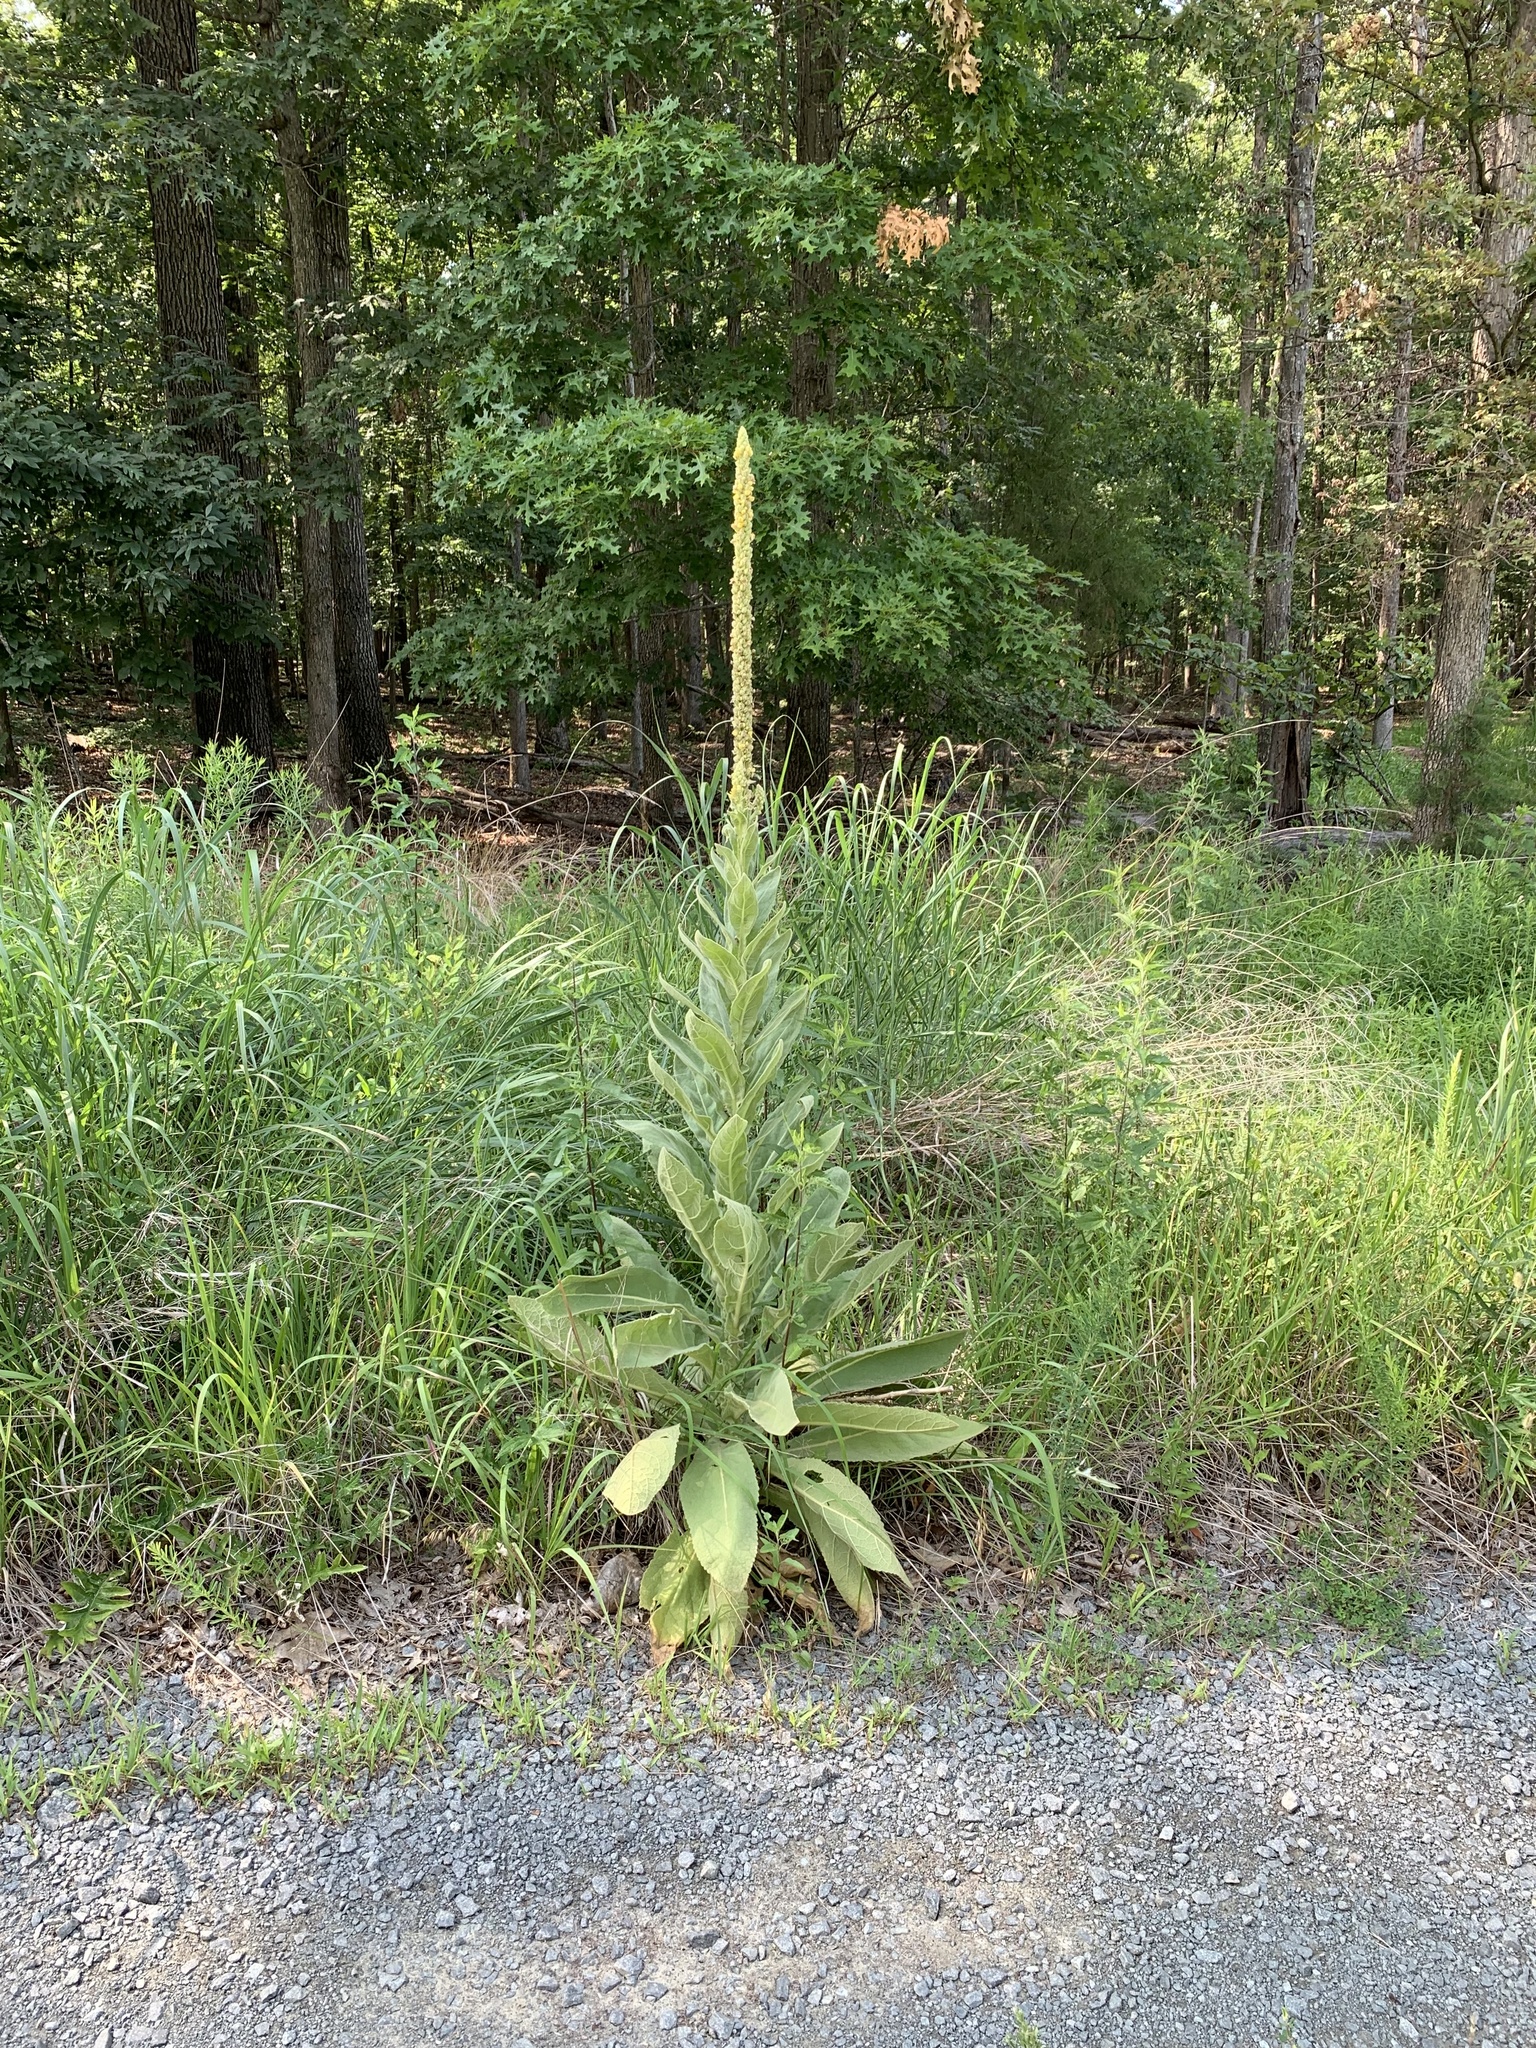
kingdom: Plantae
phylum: Tracheophyta
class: Magnoliopsida
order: Lamiales
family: Scrophulariaceae
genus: Verbascum
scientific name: Verbascum thapsus
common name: Common mullein
